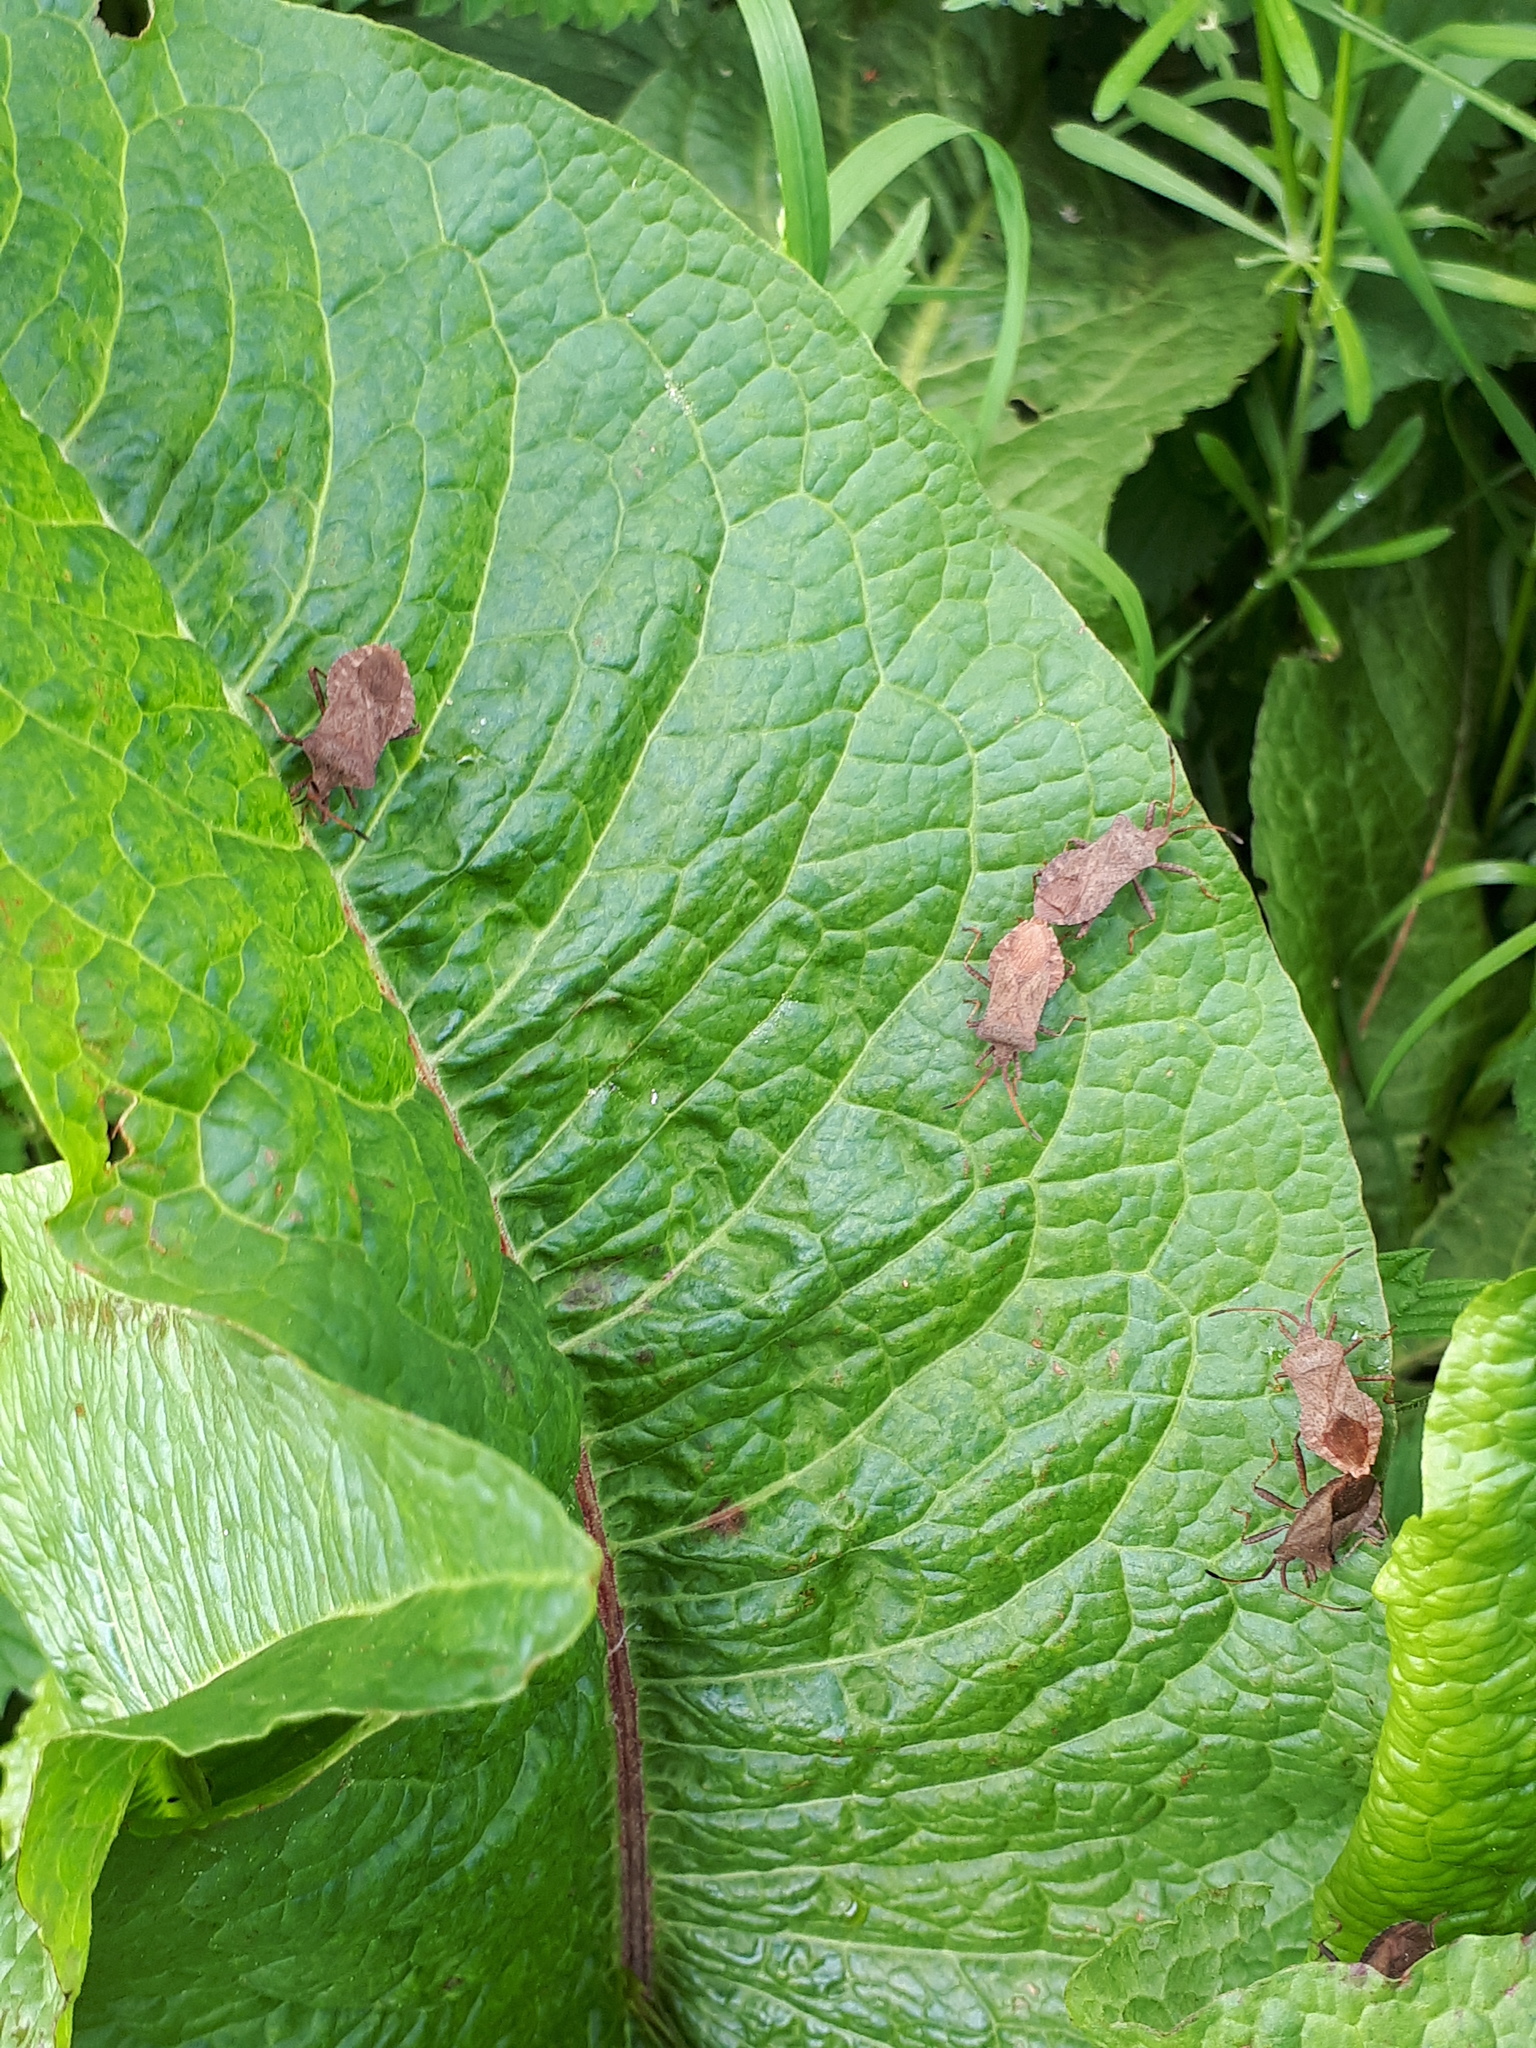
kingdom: Animalia
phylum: Arthropoda
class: Insecta
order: Hemiptera
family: Coreidae
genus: Coreus
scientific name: Coreus marginatus
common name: Dock bug
